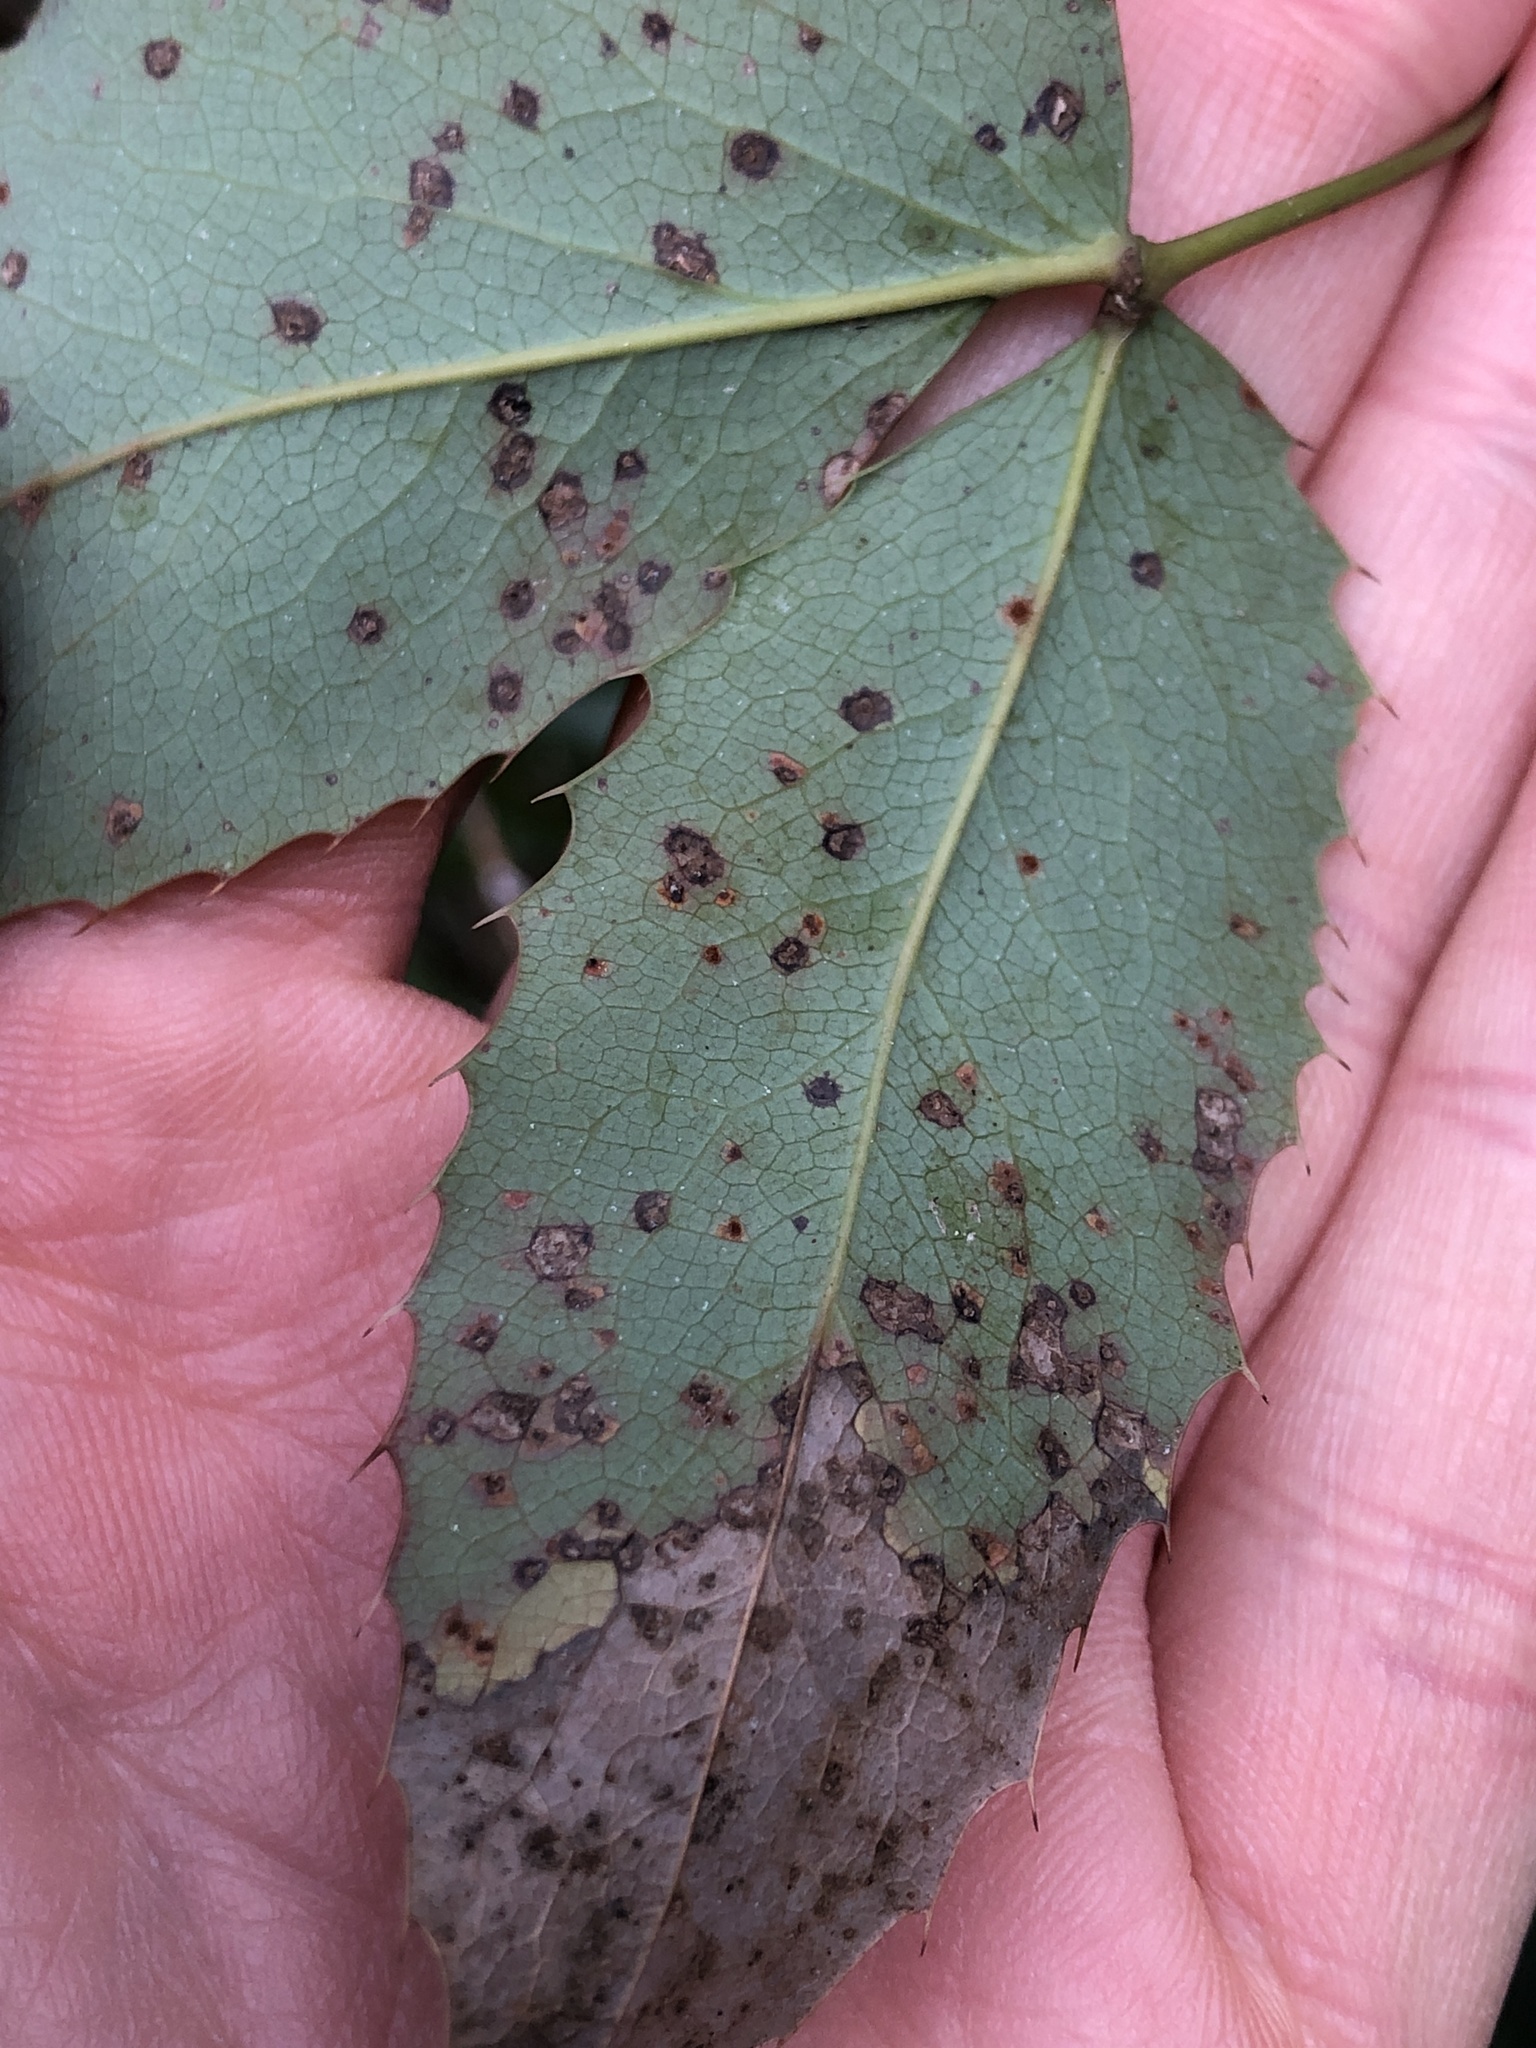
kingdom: Fungi
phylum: Basidiomycota
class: Pucciniomycetes
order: Pucciniales
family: Pucciniaceae
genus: Cumminsiella
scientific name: Cumminsiella mirabilissima
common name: Mahonia rust
